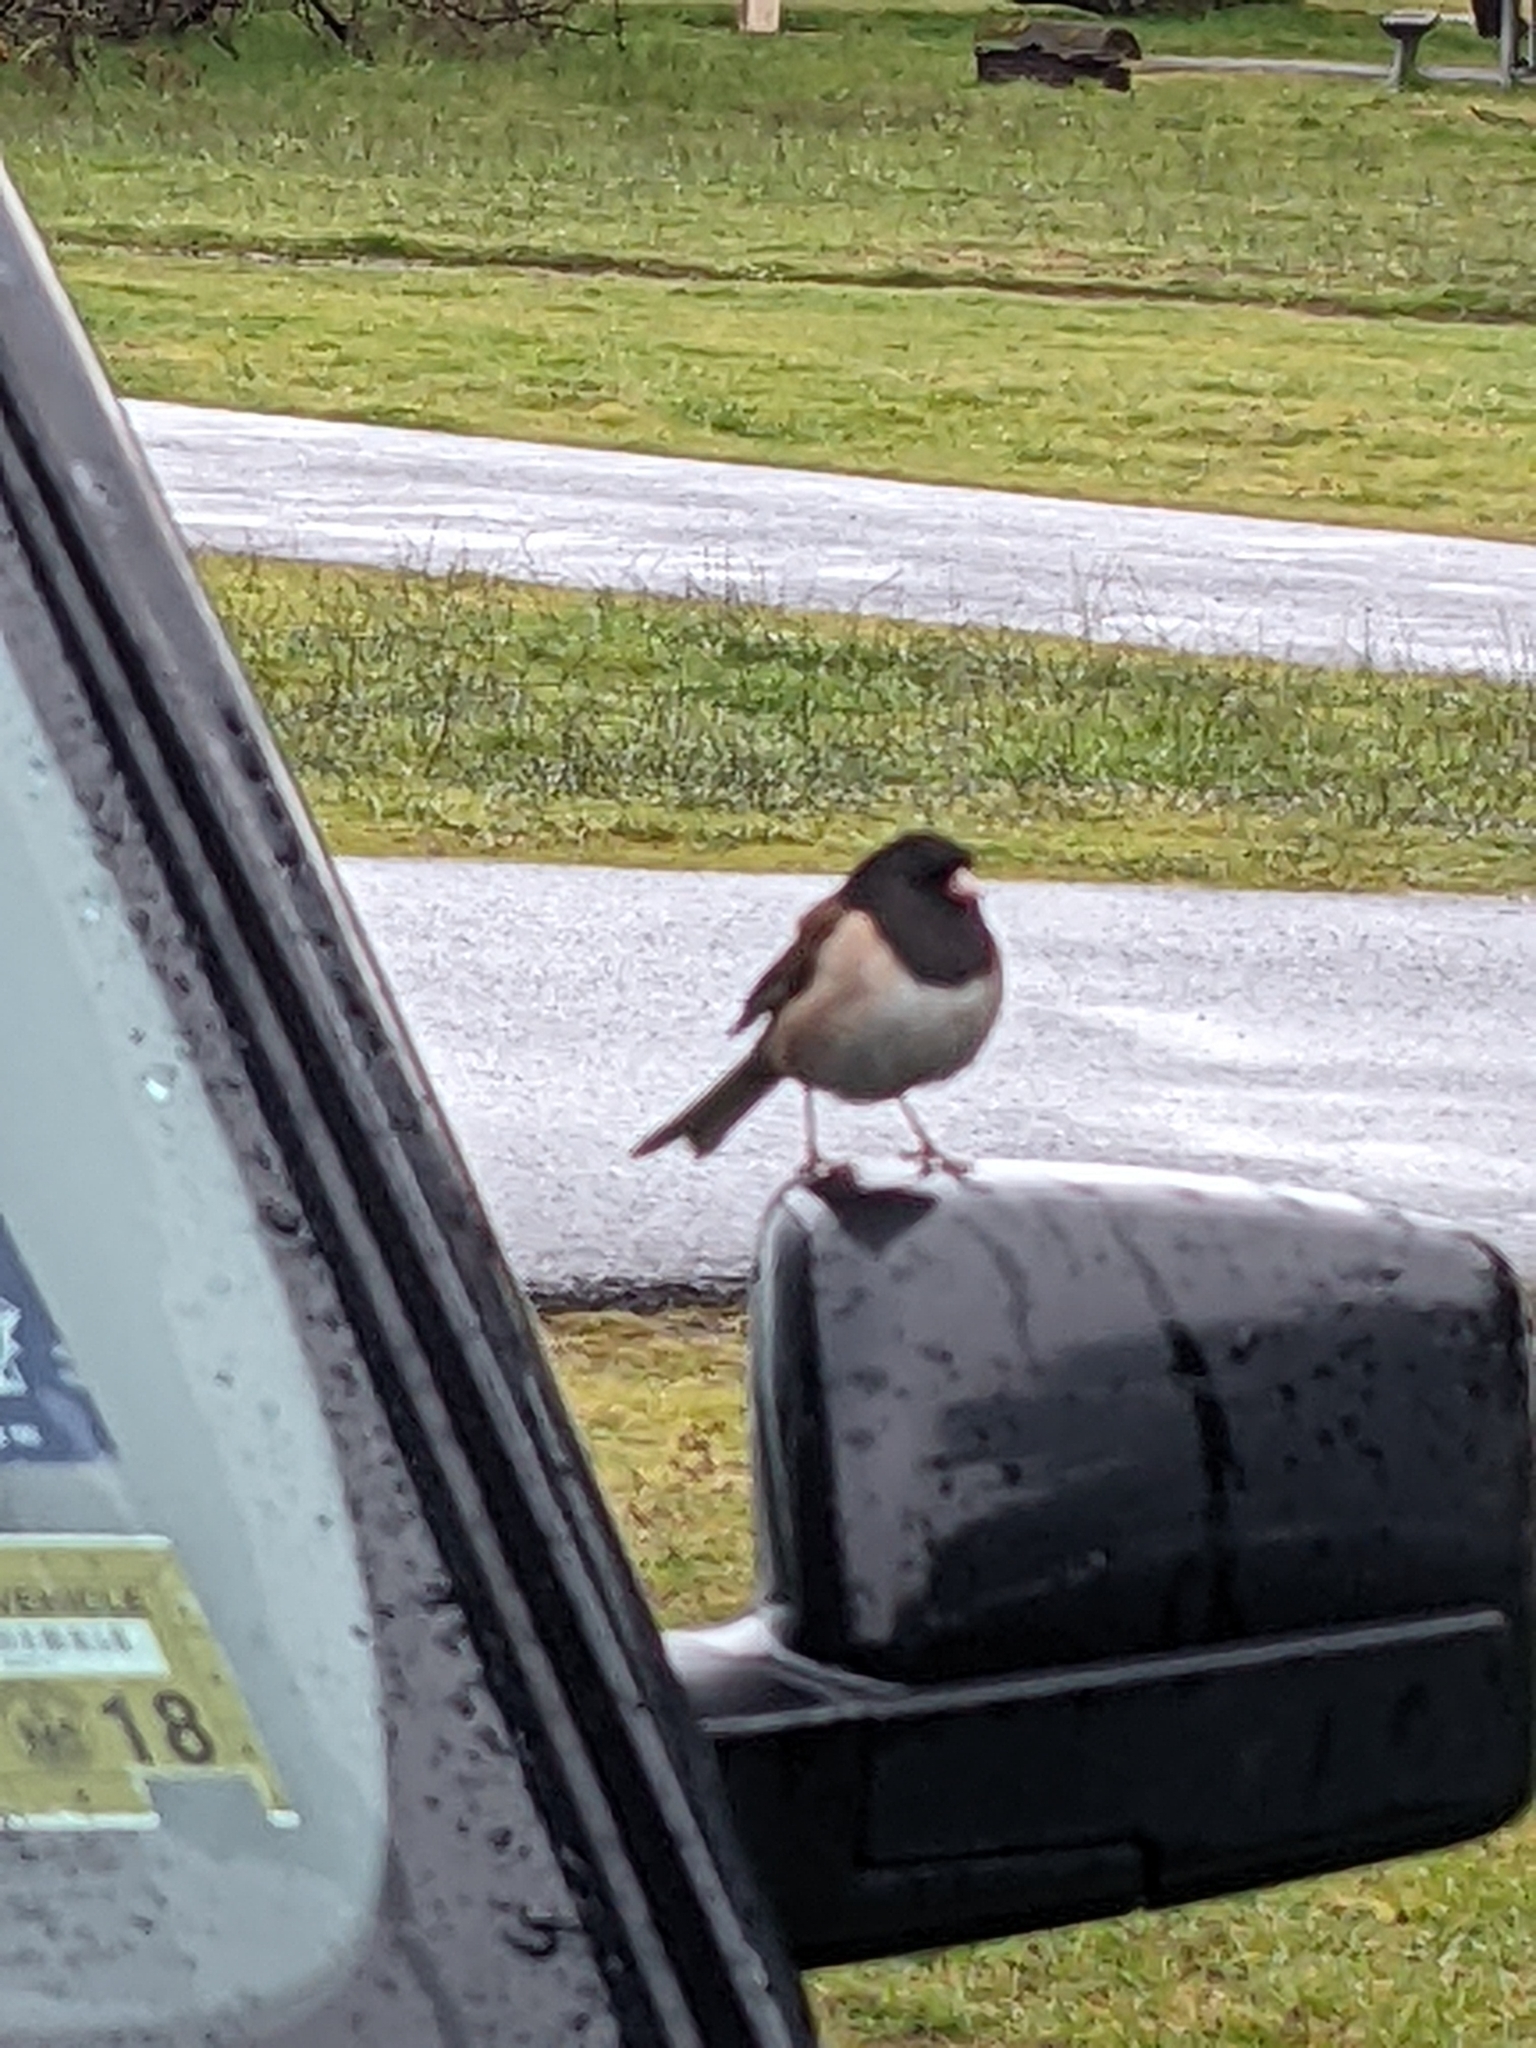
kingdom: Animalia
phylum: Chordata
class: Aves
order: Passeriformes
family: Passerellidae
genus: Junco
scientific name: Junco hyemalis
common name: Dark-eyed junco
